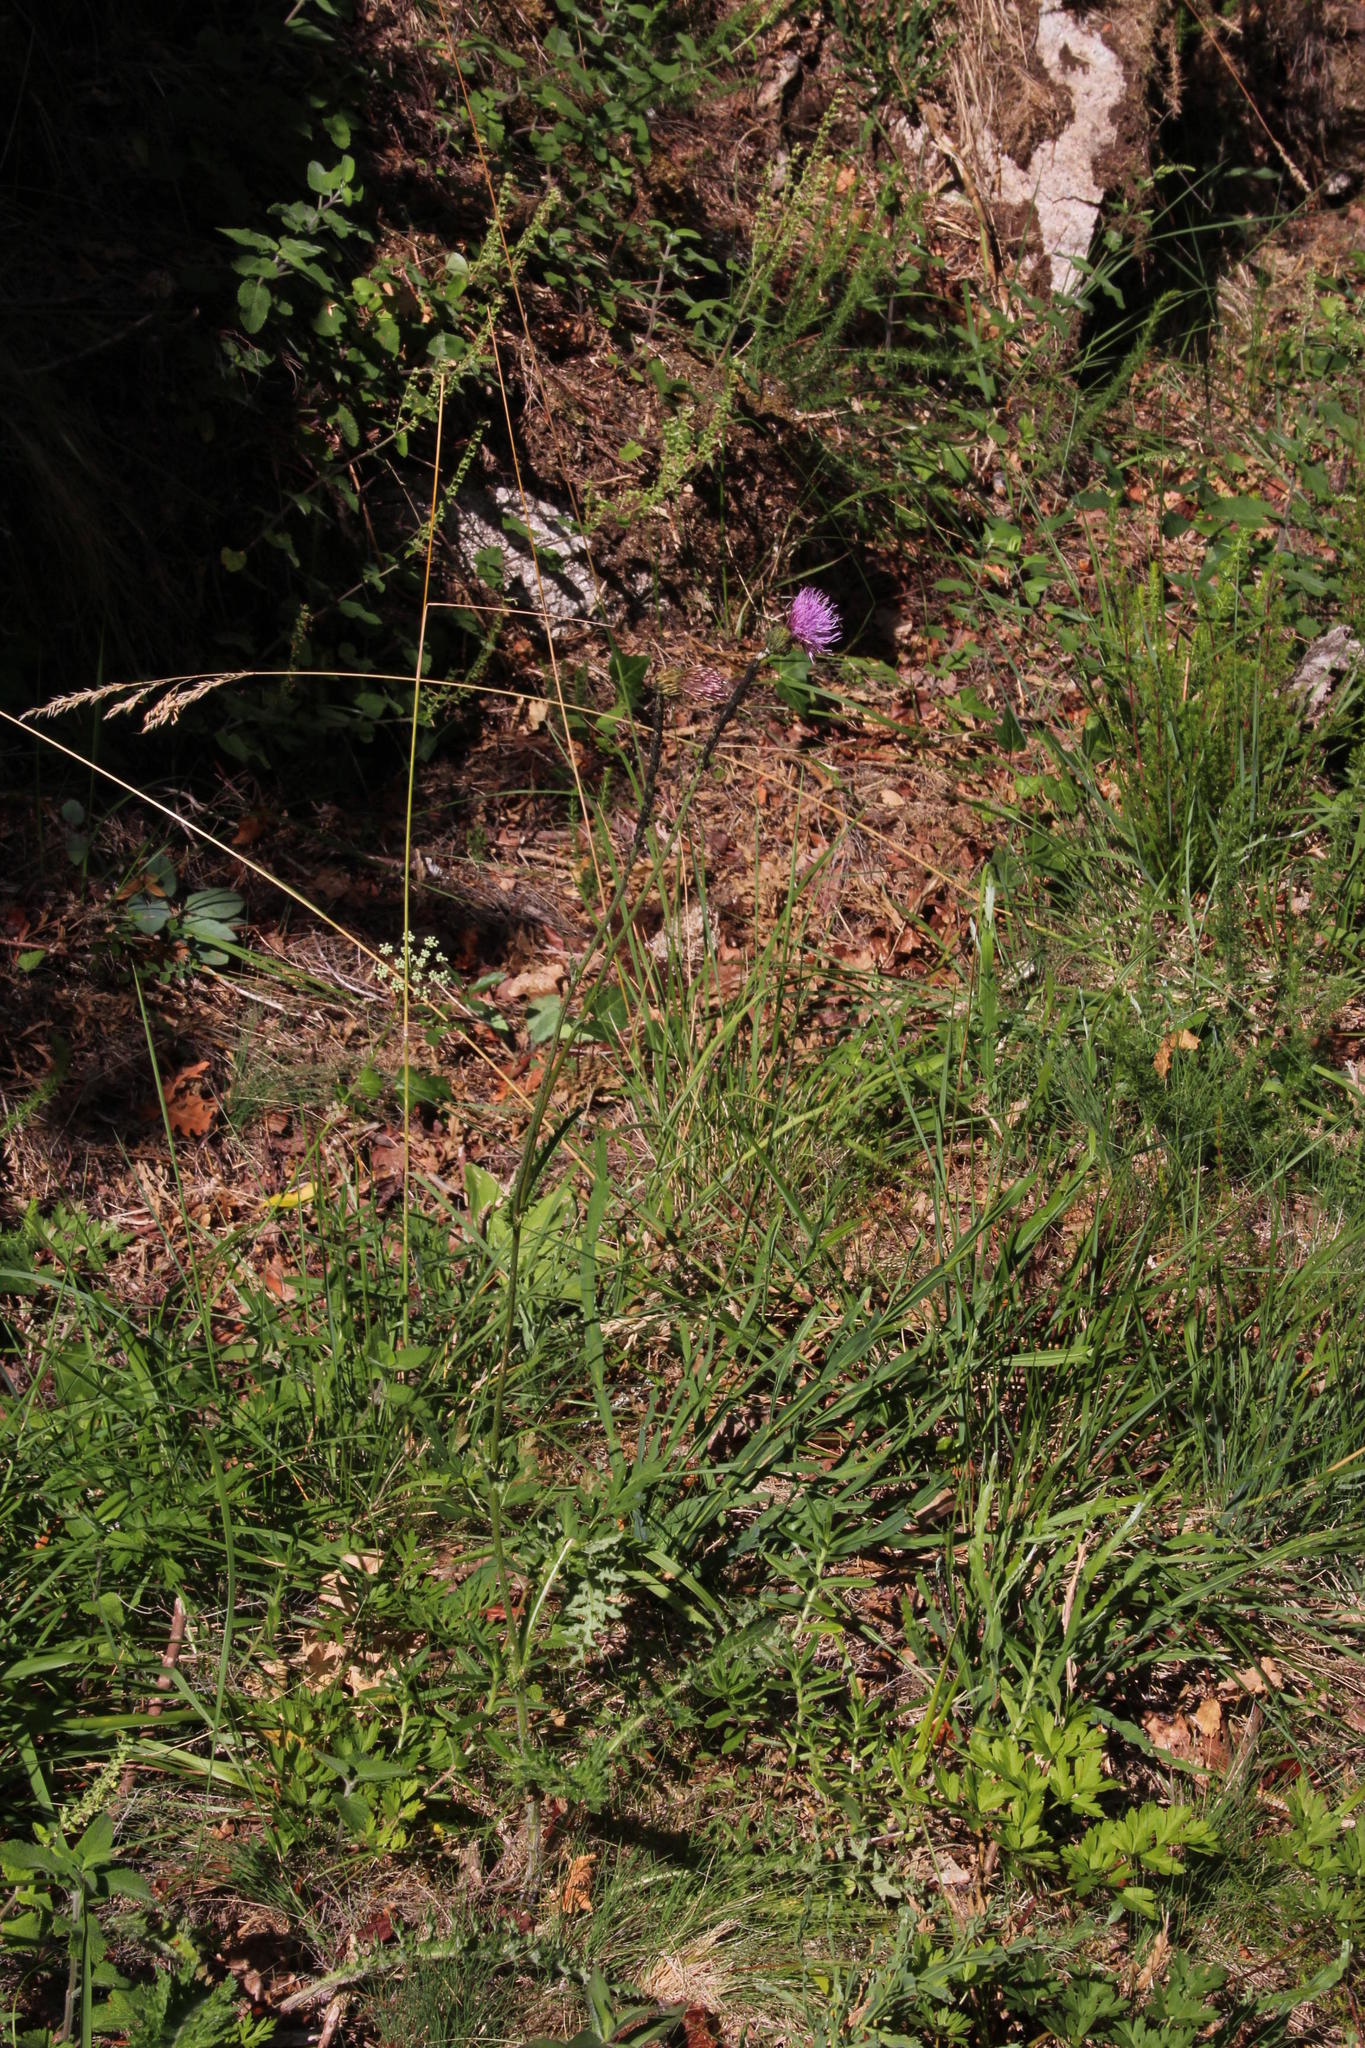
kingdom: Plantae
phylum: Tracheophyta
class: Magnoliopsida
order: Asterales
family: Asteraceae
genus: Cirsium
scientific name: Cirsium filipendulum
